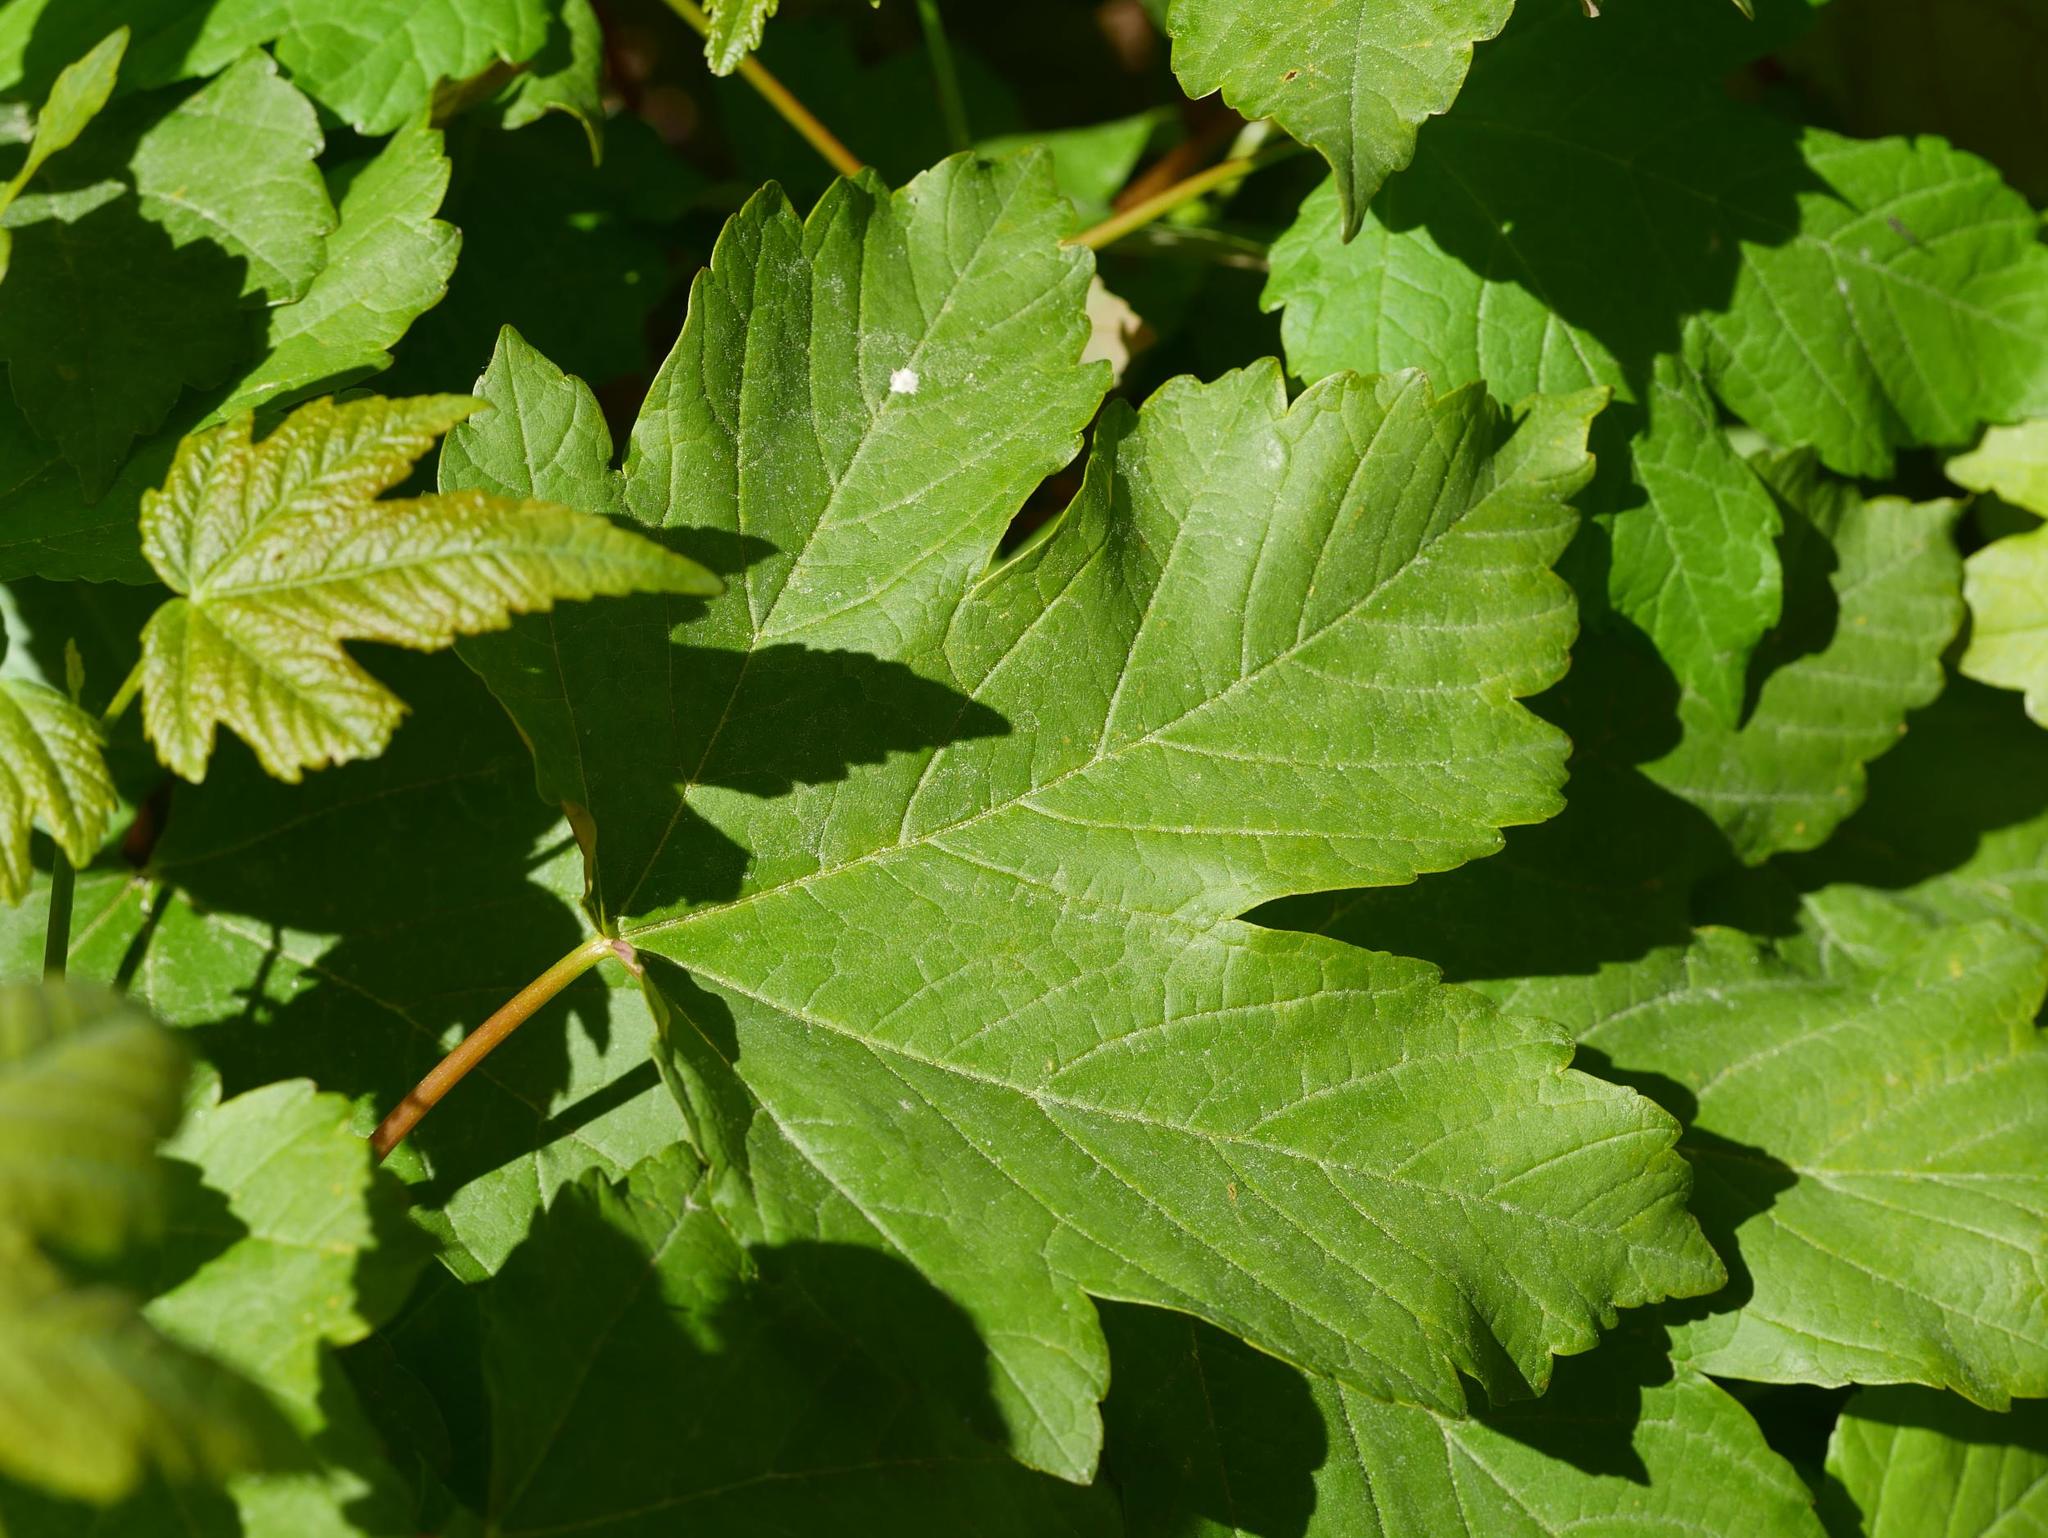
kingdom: Plantae
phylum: Tracheophyta
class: Magnoliopsida
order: Sapindales
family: Sapindaceae
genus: Acer
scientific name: Acer pseudoplatanus
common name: Sycamore
